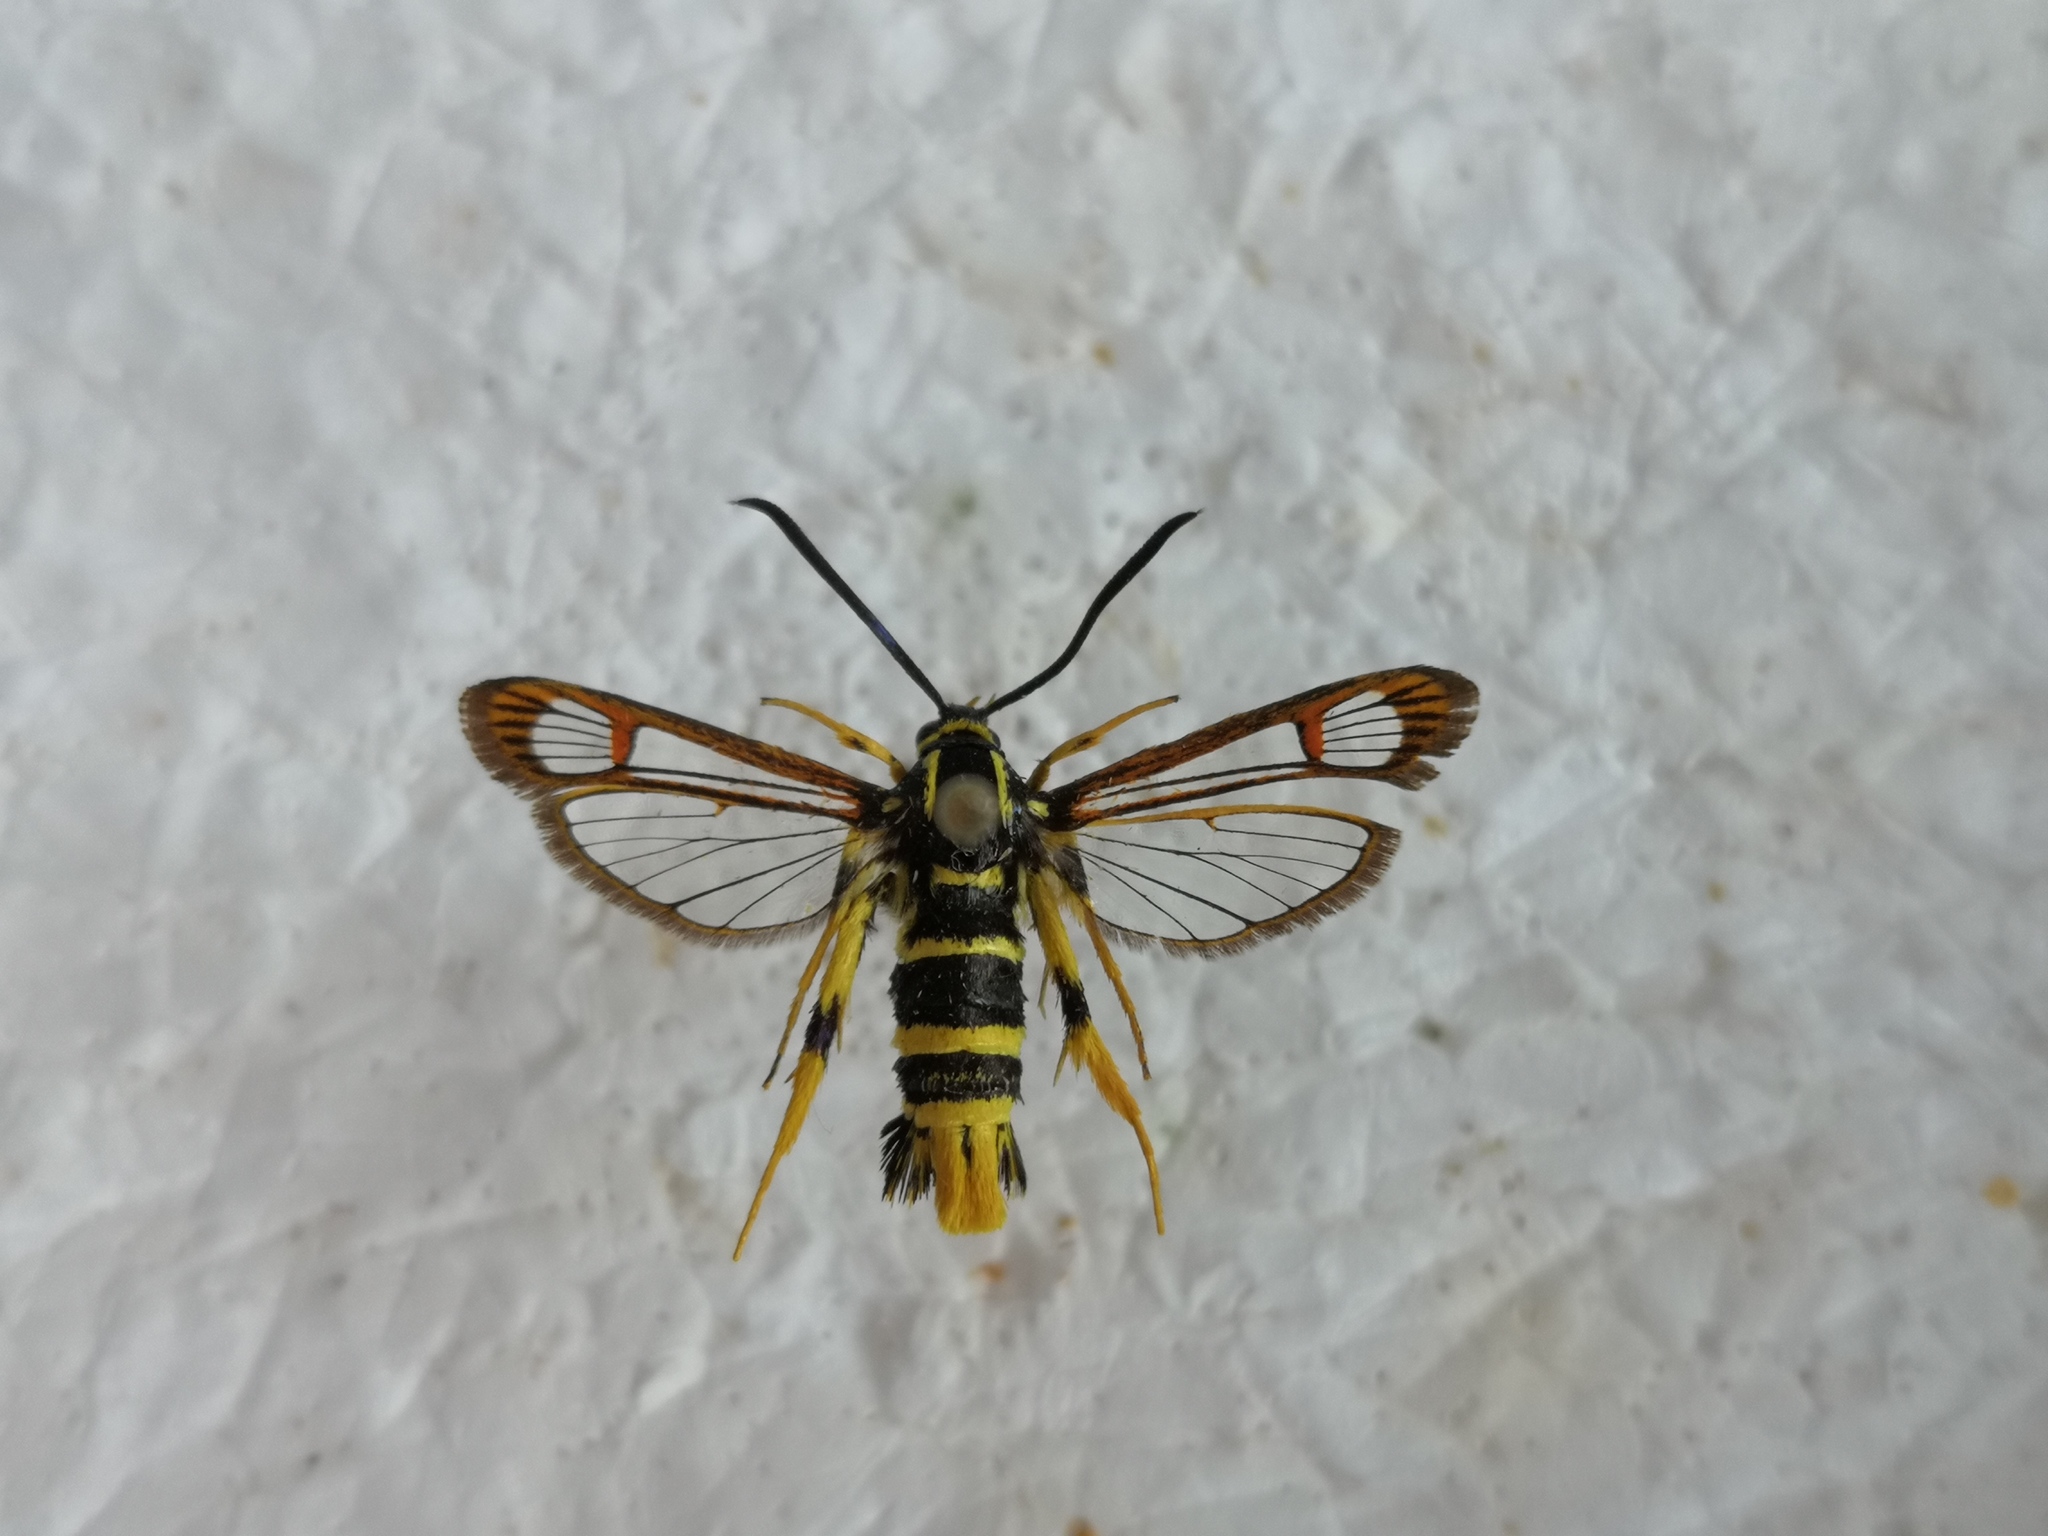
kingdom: Animalia
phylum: Arthropoda
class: Insecta
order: Lepidoptera
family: Sesiidae
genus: Synanthedon
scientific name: Synanthedon vespiformis
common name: Yellow-legged clearwing
